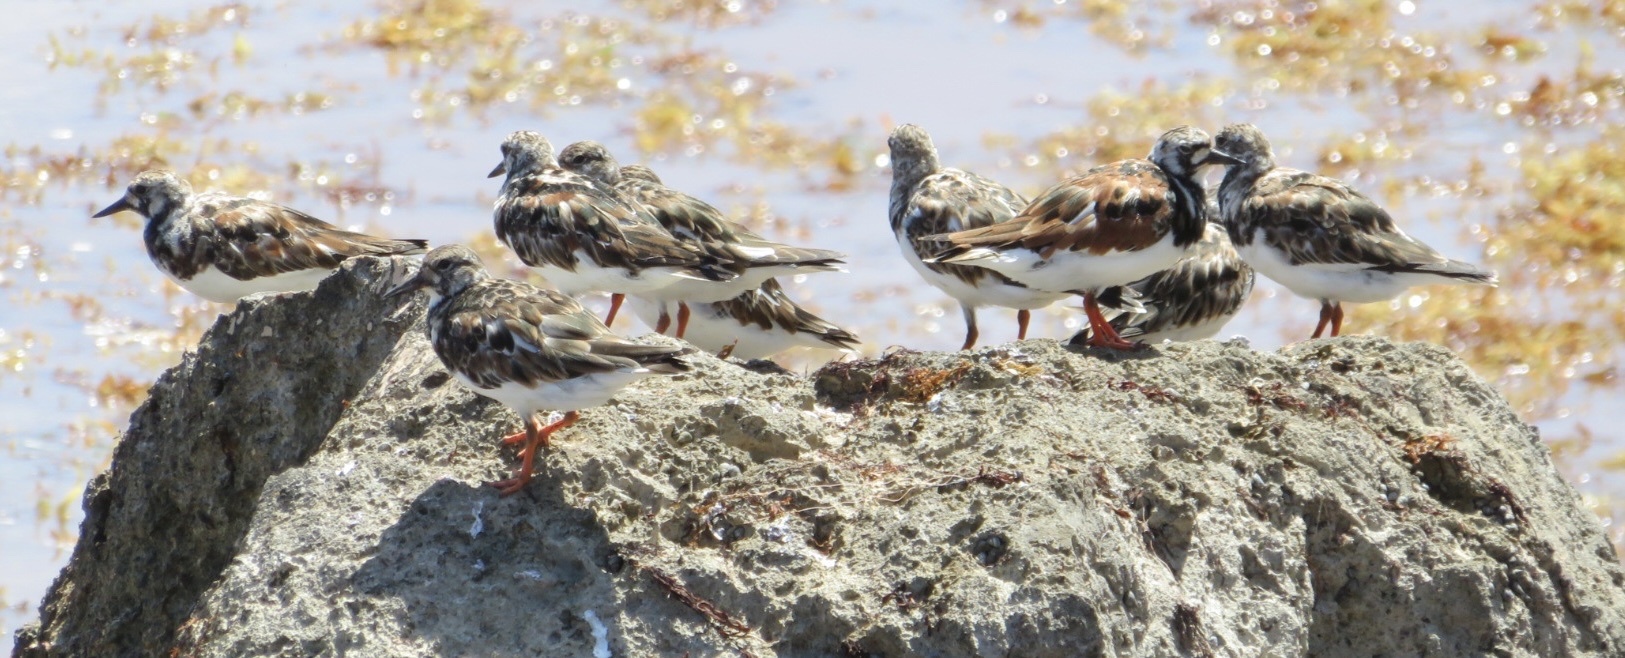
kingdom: Animalia
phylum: Chordata
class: Aves
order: Charadriiformes
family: Scolopacidae
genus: Arenaria
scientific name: Arenaria interpres
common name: Ruddy turnstone
